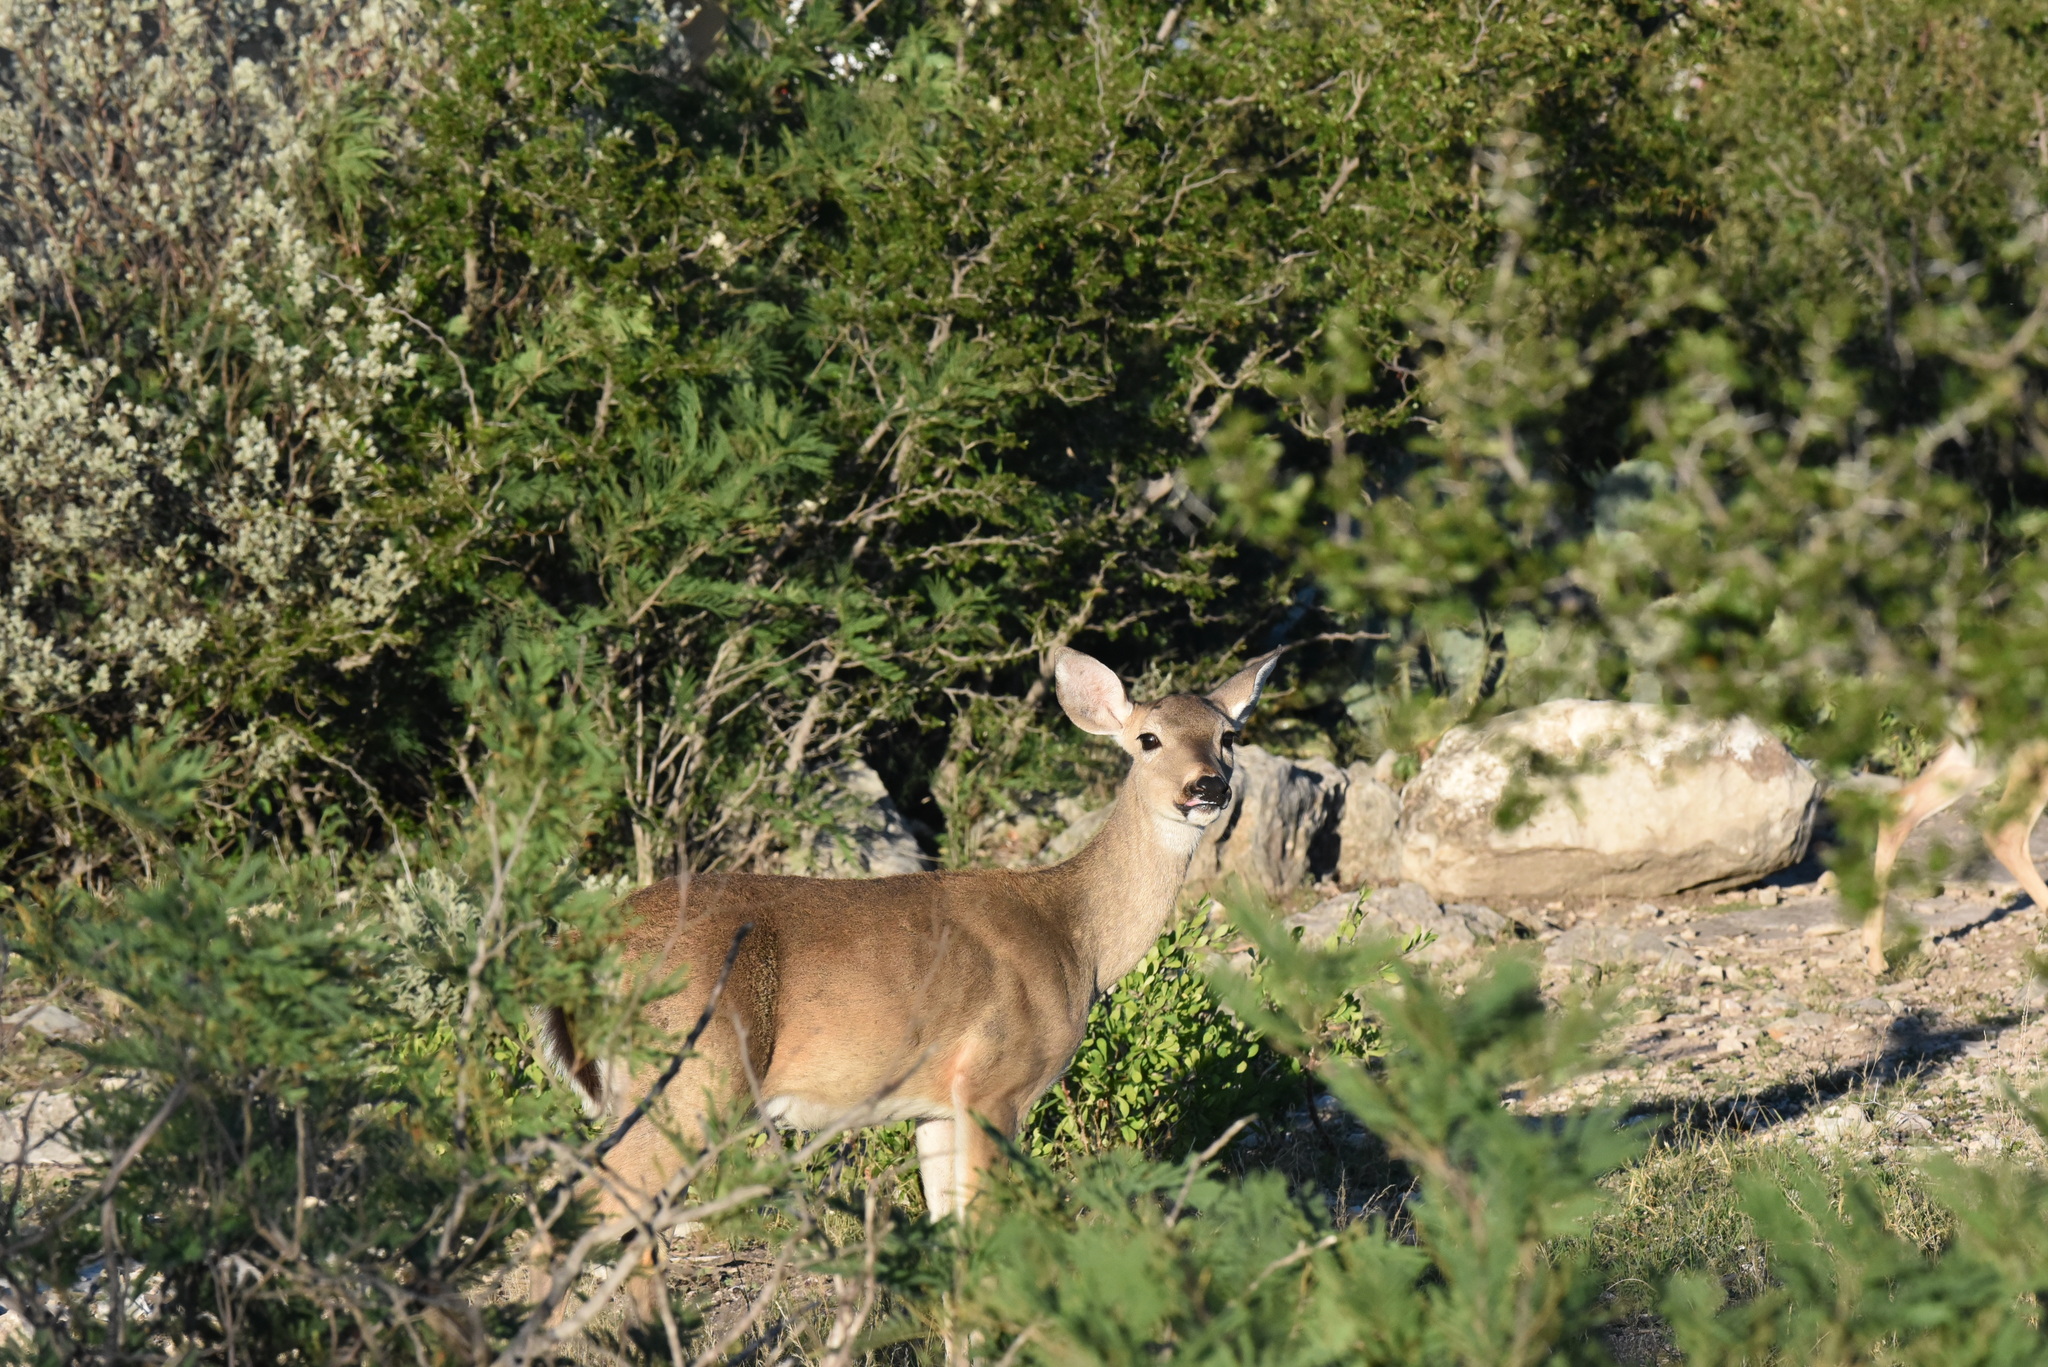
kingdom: Animalia
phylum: Chordata
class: Mammalia
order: Artiodactyla
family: Cervidae
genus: Odocoileus
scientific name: Odocoileus virginianus
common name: White-tailed deer
